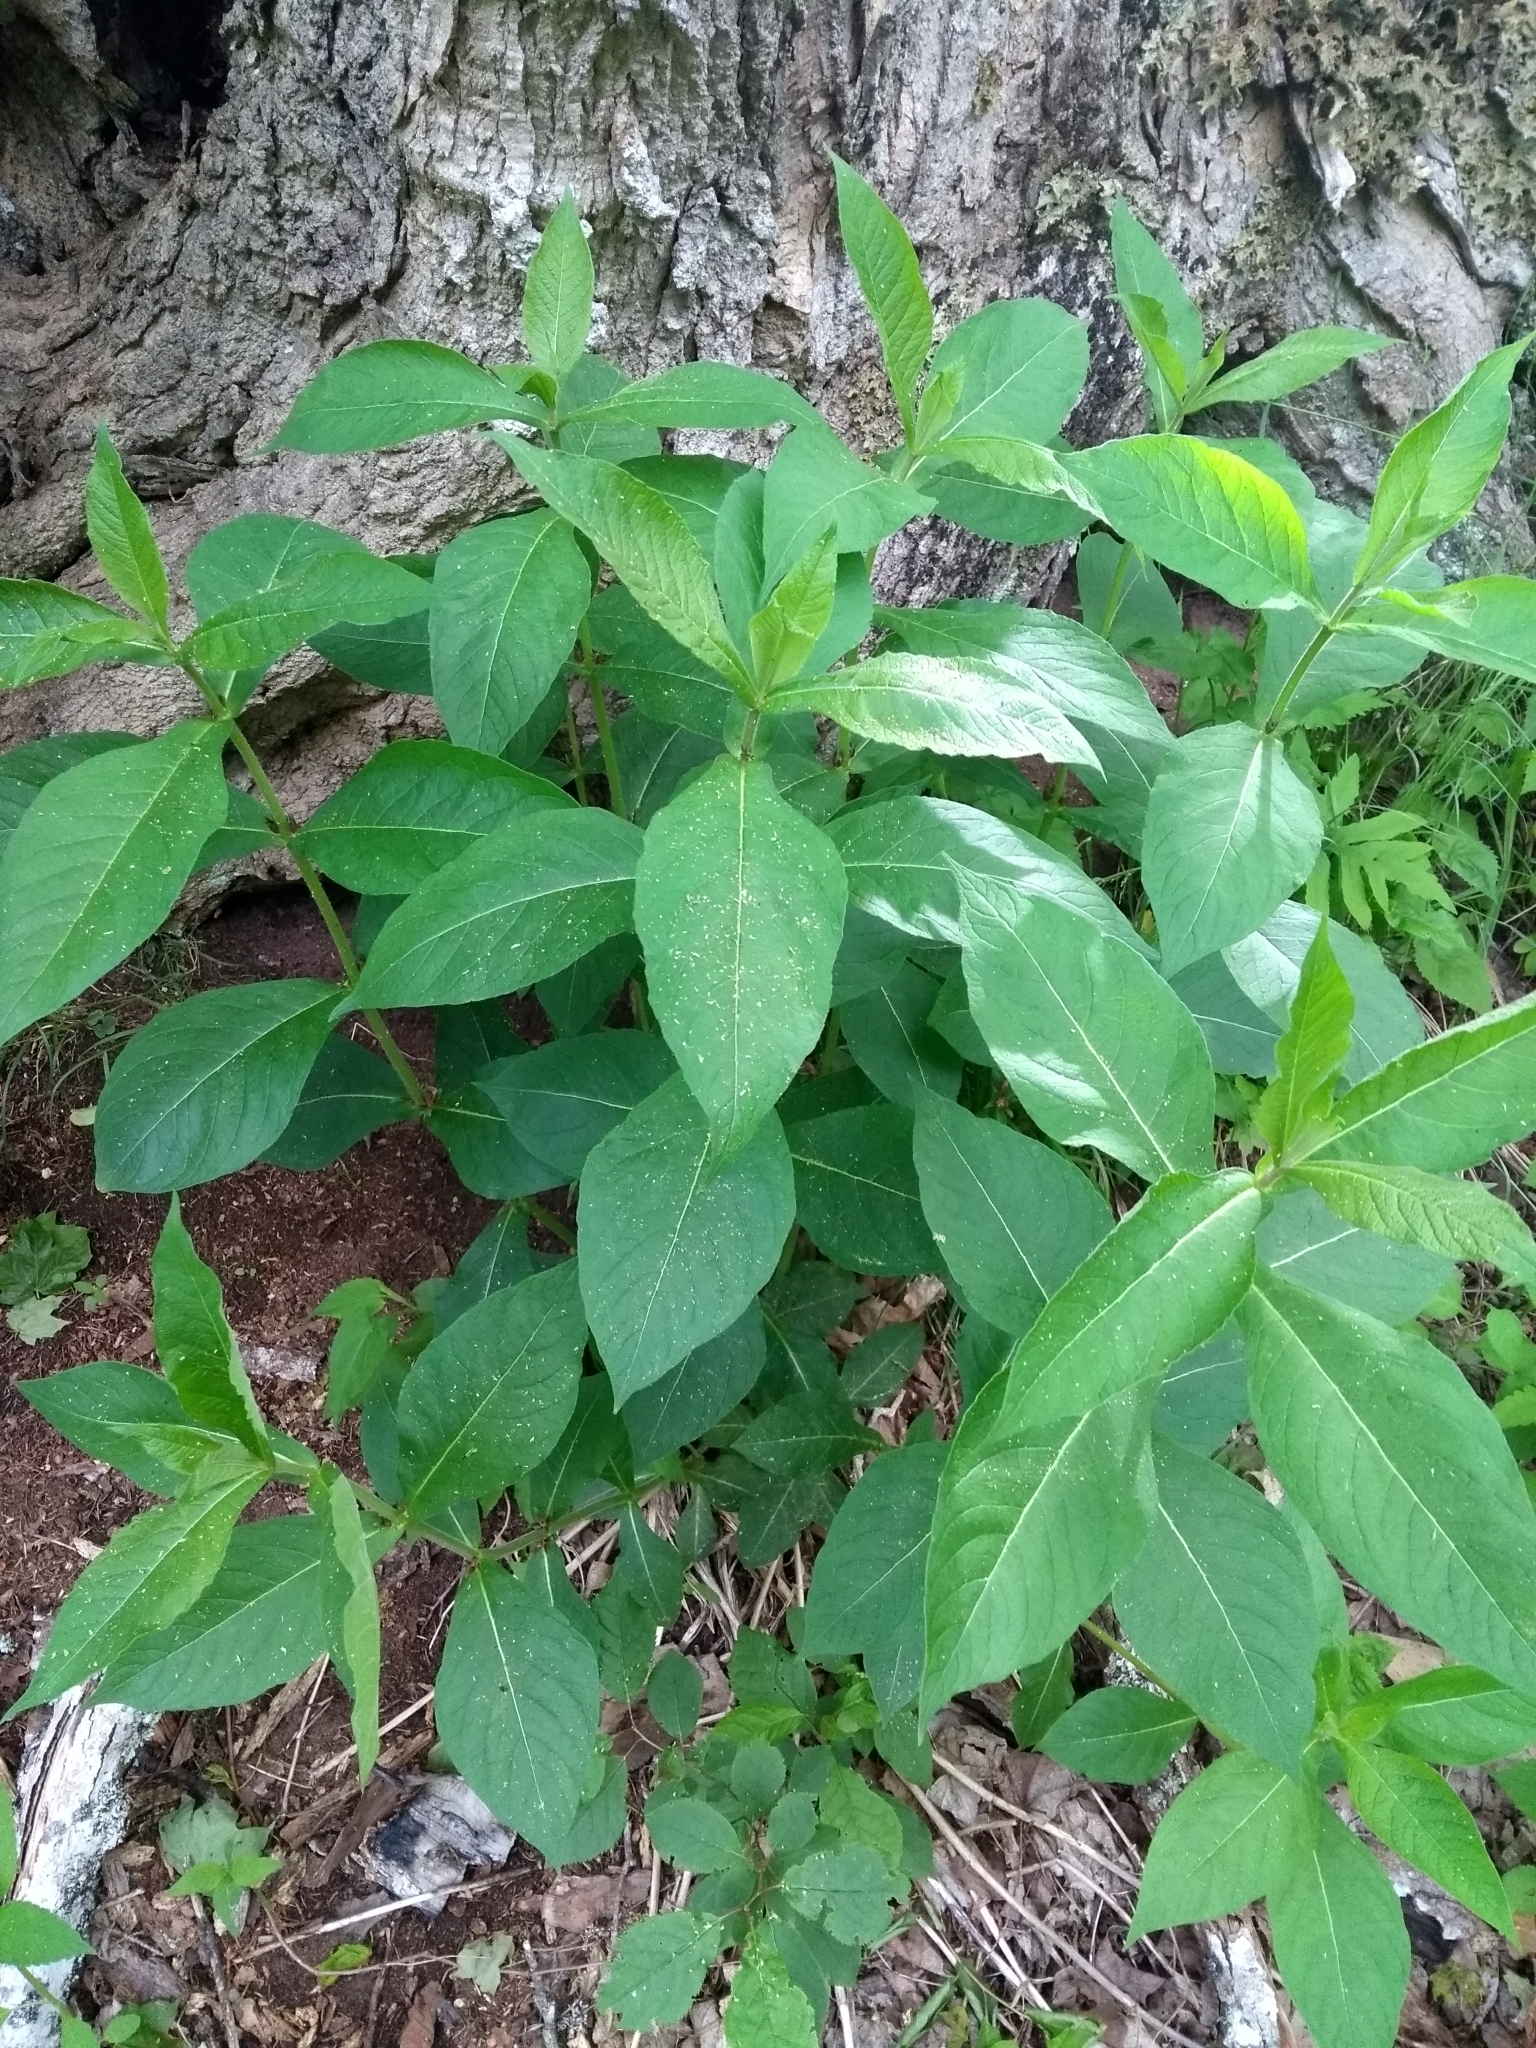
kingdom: Plantae
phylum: Tracheophyta
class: Magnoliopsida
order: Dipsacales
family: Caprifoliaceae
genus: Triosteum
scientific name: Triosteum aurantiacum
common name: Coffee tinker's-weed
